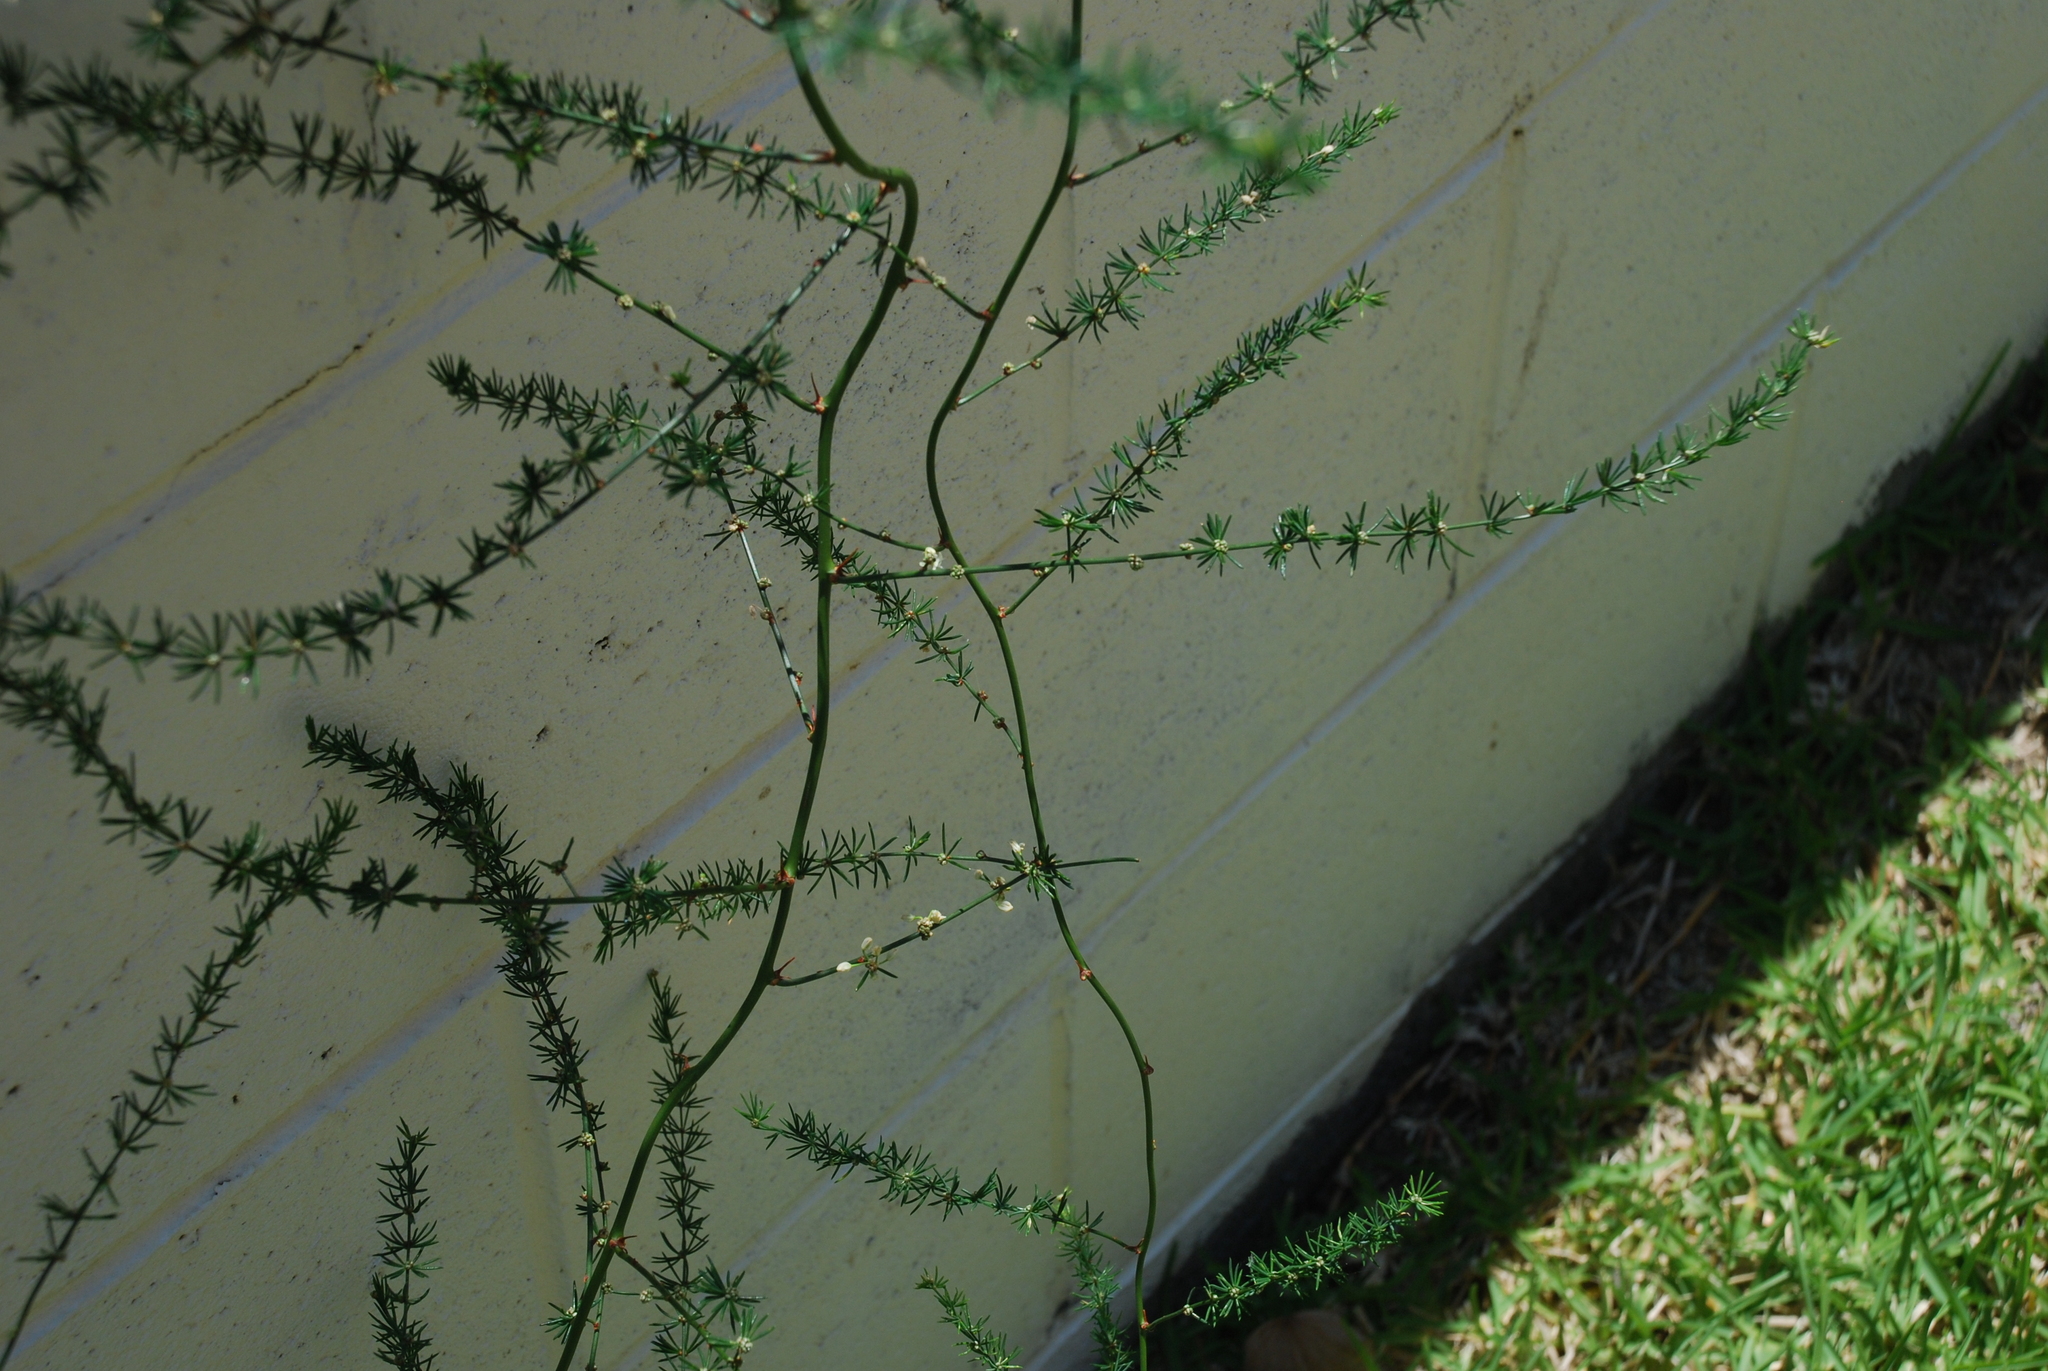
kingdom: Plantae
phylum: Tracheophyta
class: Liliopsida
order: Asparagales
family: Asparagaceae
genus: Asparagus
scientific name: Asparagus africanus
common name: Asparagus-fern
